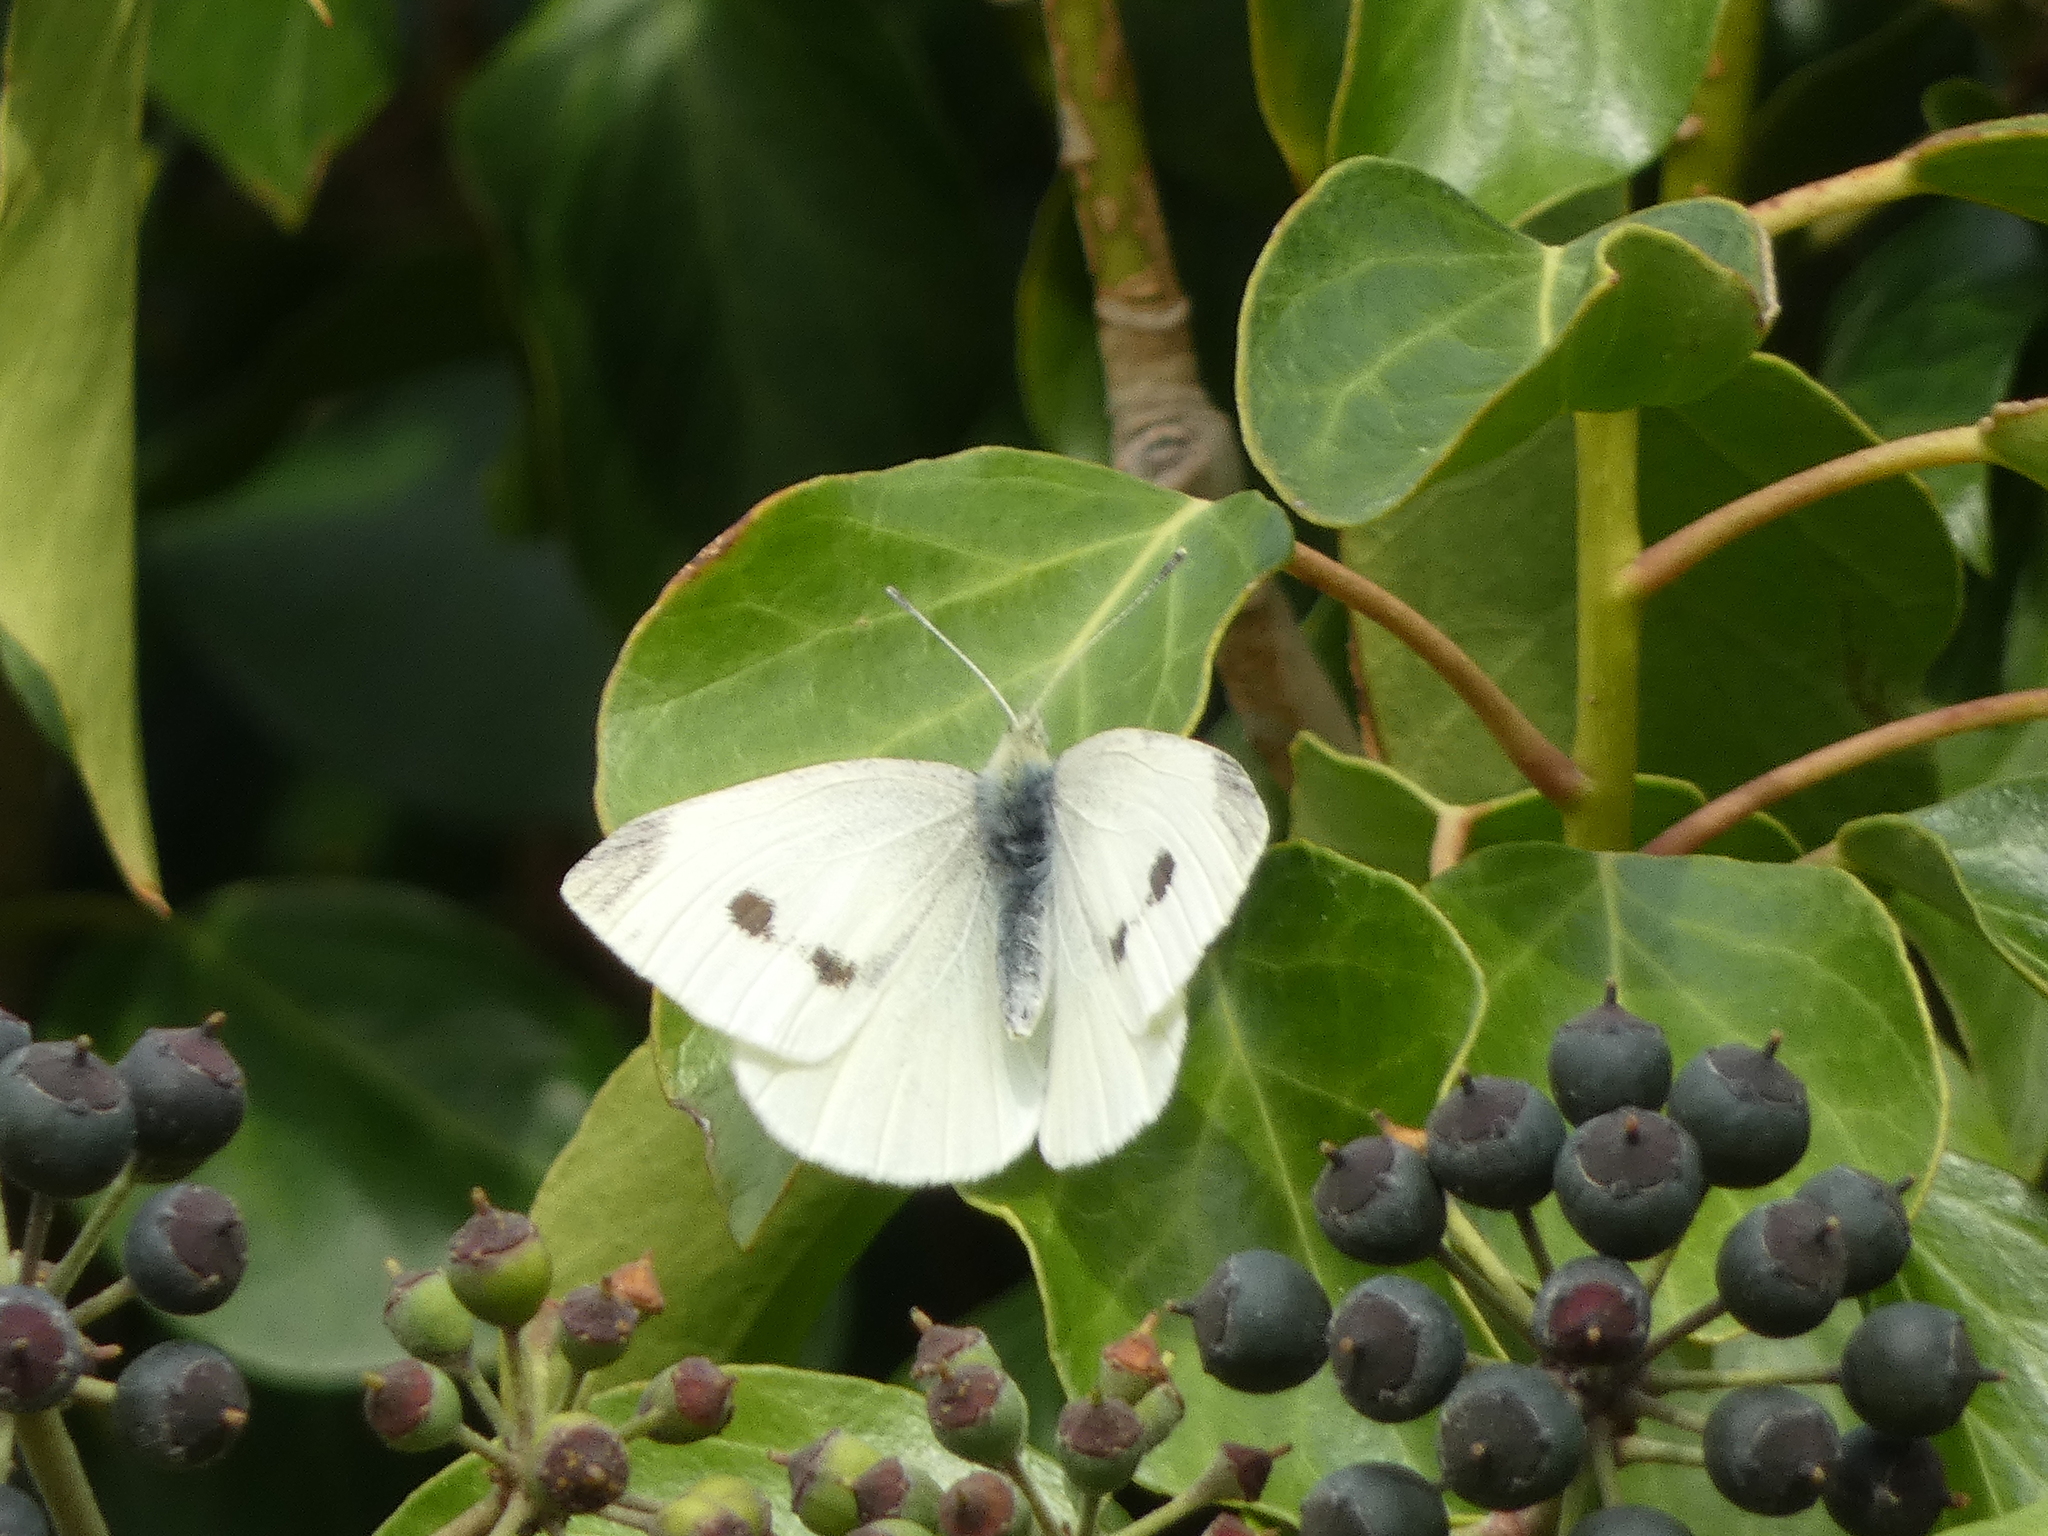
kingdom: Animalia
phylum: Arthropoda
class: Insecta
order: Lepidoptera
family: Pieridae
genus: Pieris
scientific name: Pieris rapae
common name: Small white
